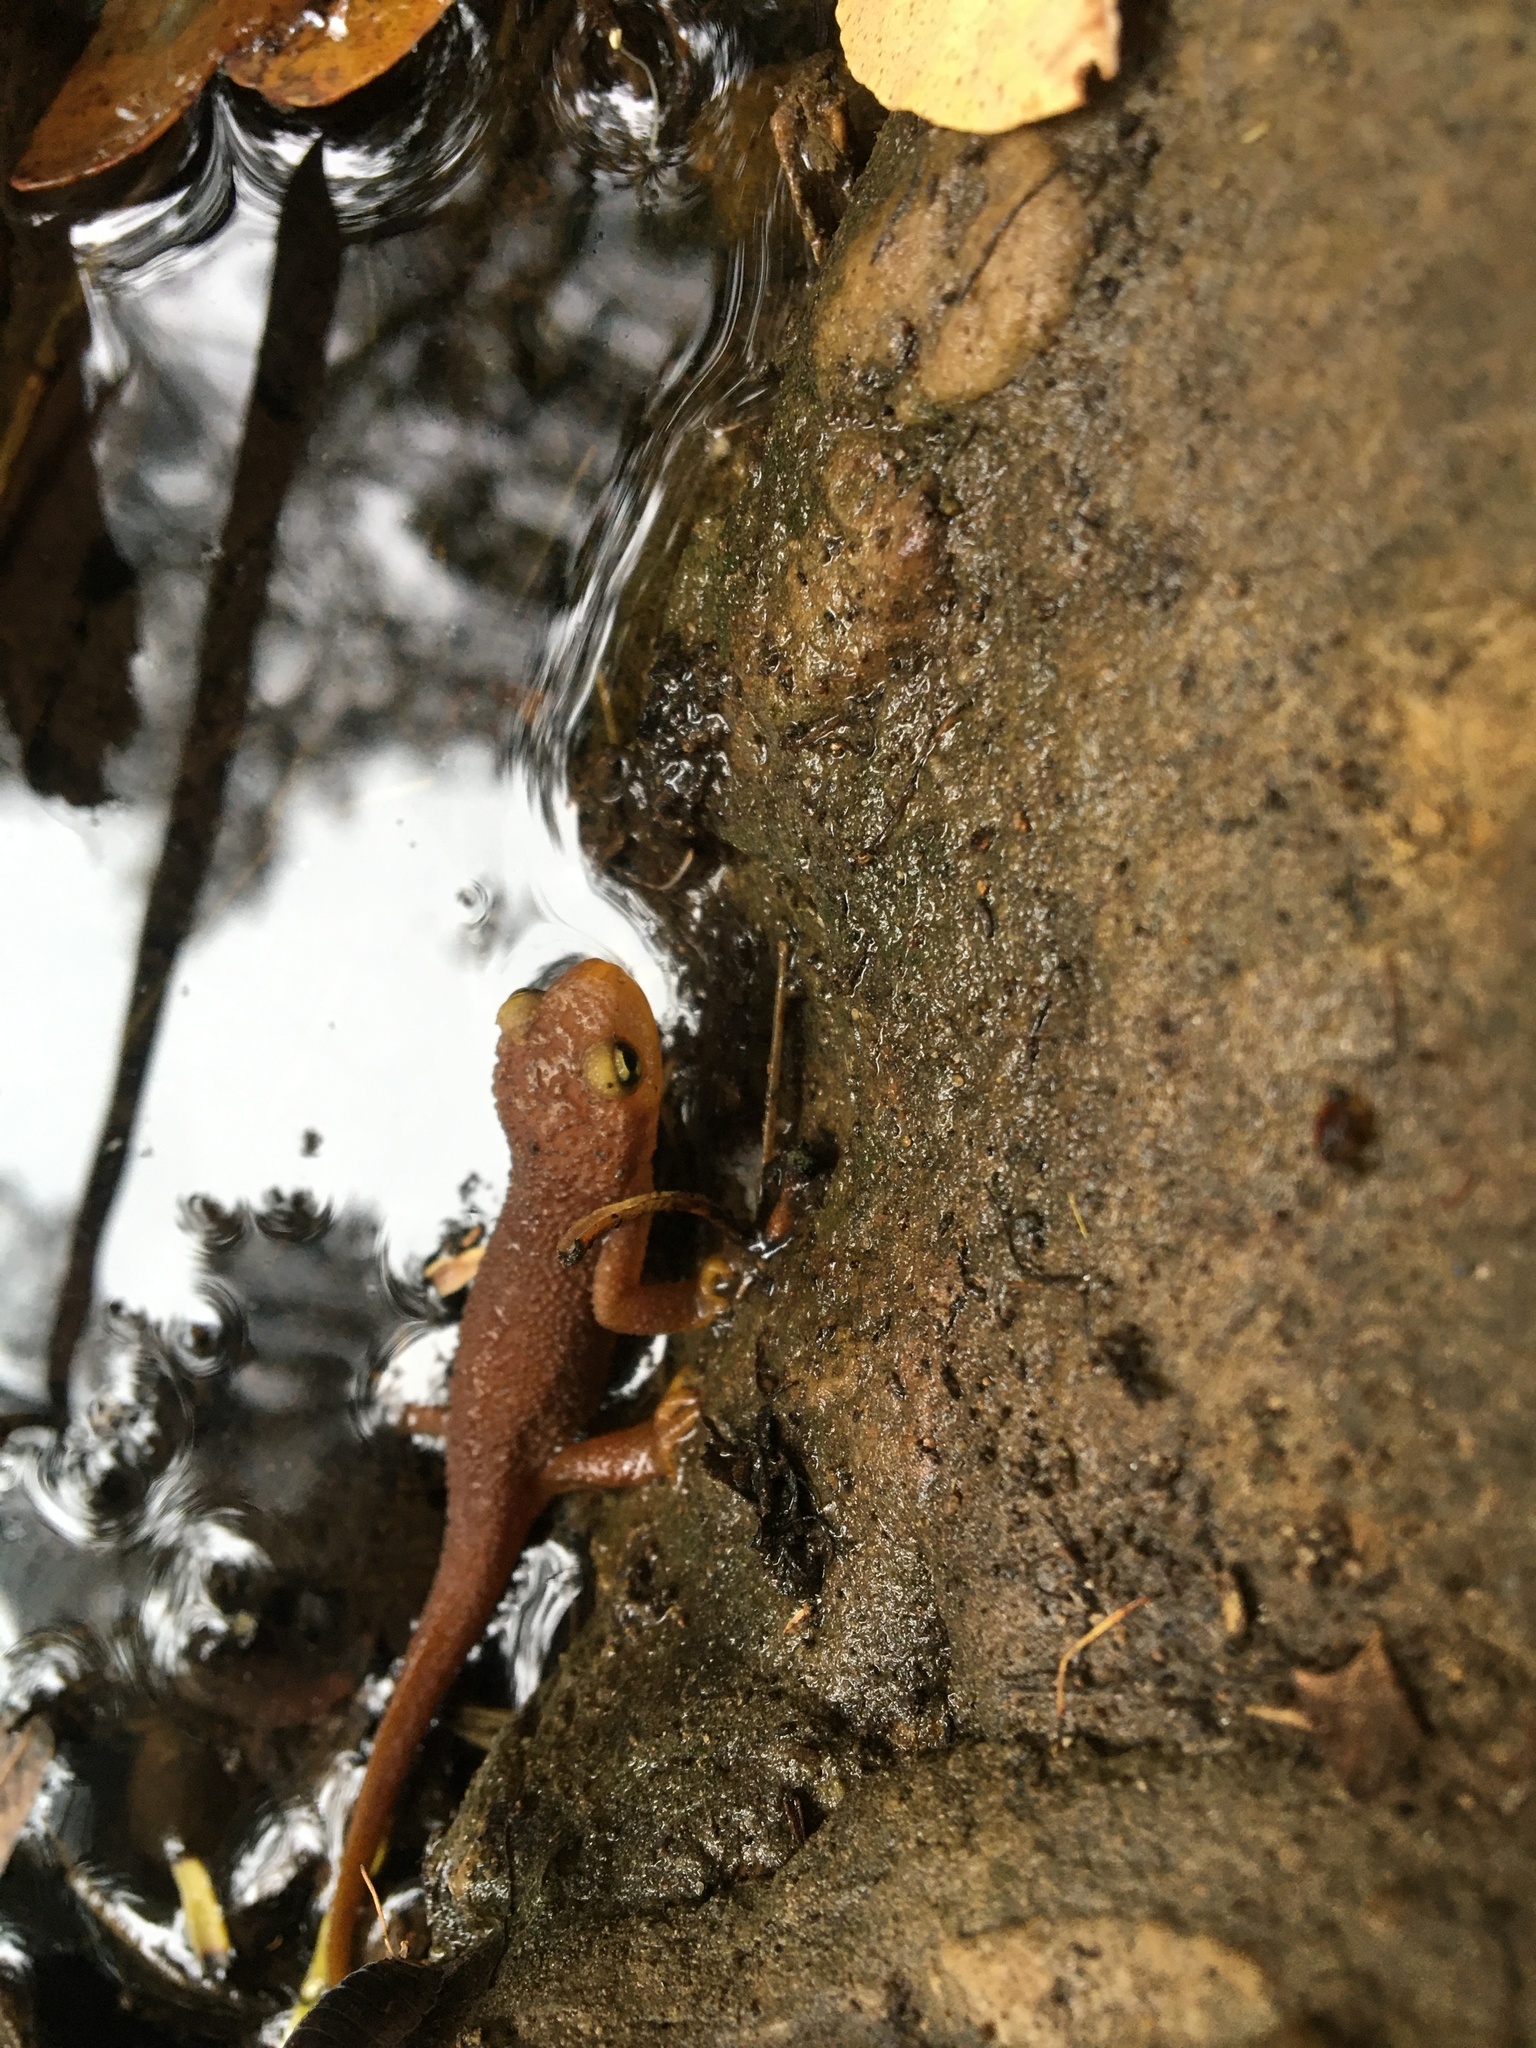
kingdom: Animalia
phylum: Chordata
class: Amphibia
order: Caudata
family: Salamandridae
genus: Taricha
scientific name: Taricha torosa
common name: California newt
